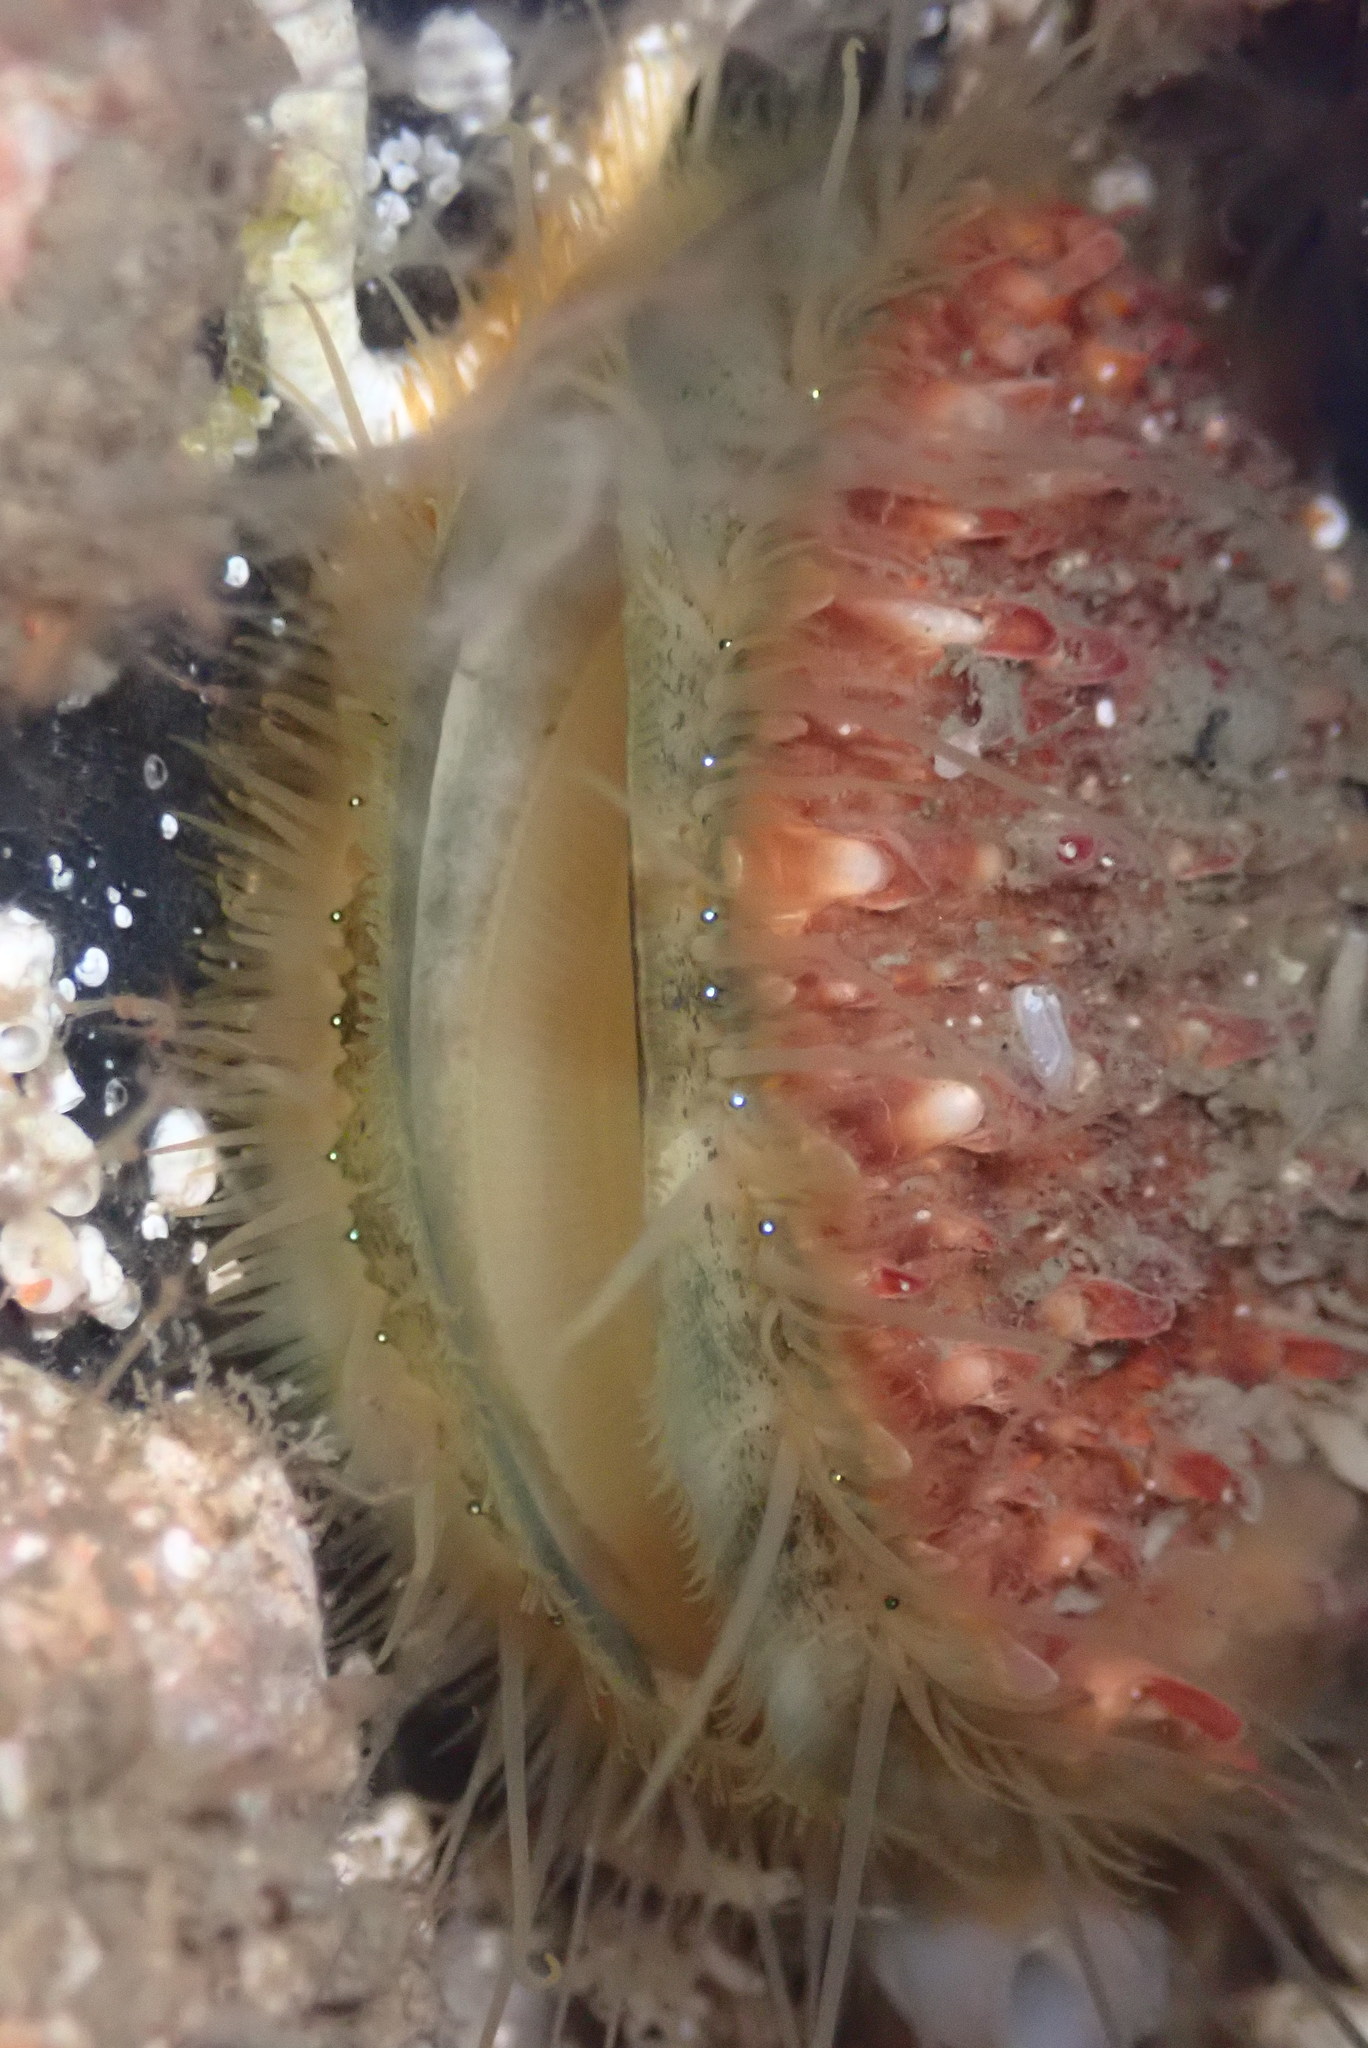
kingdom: Animalia
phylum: Mollusca
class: Bivalvia
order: Pectinida
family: Pectinidae
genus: Crassadoma
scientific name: Crassadoma gigantea
